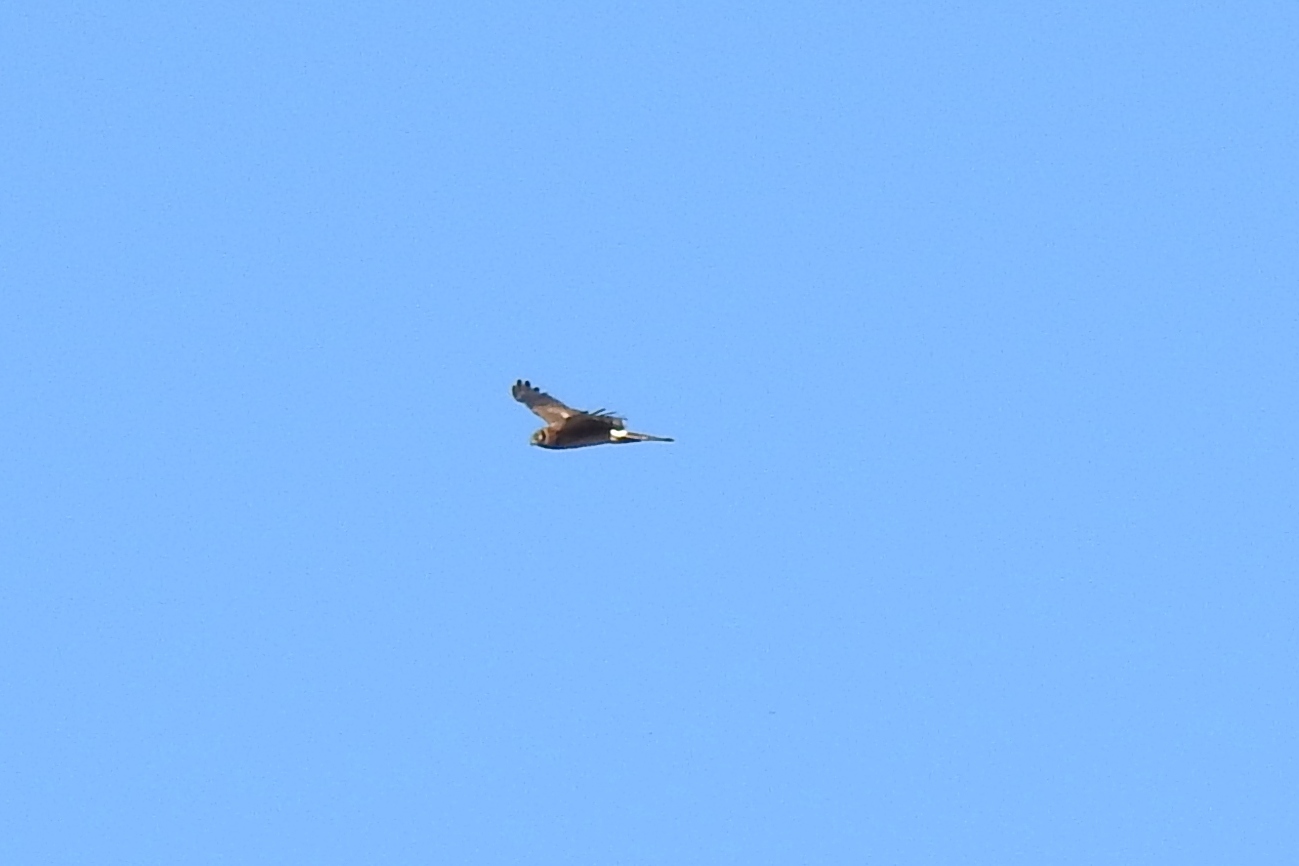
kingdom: Animalia
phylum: Chordata
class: Aves
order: Accipitriformes
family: Accipitridae
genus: Circus
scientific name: Circus cyaneus
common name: Hen harrier
